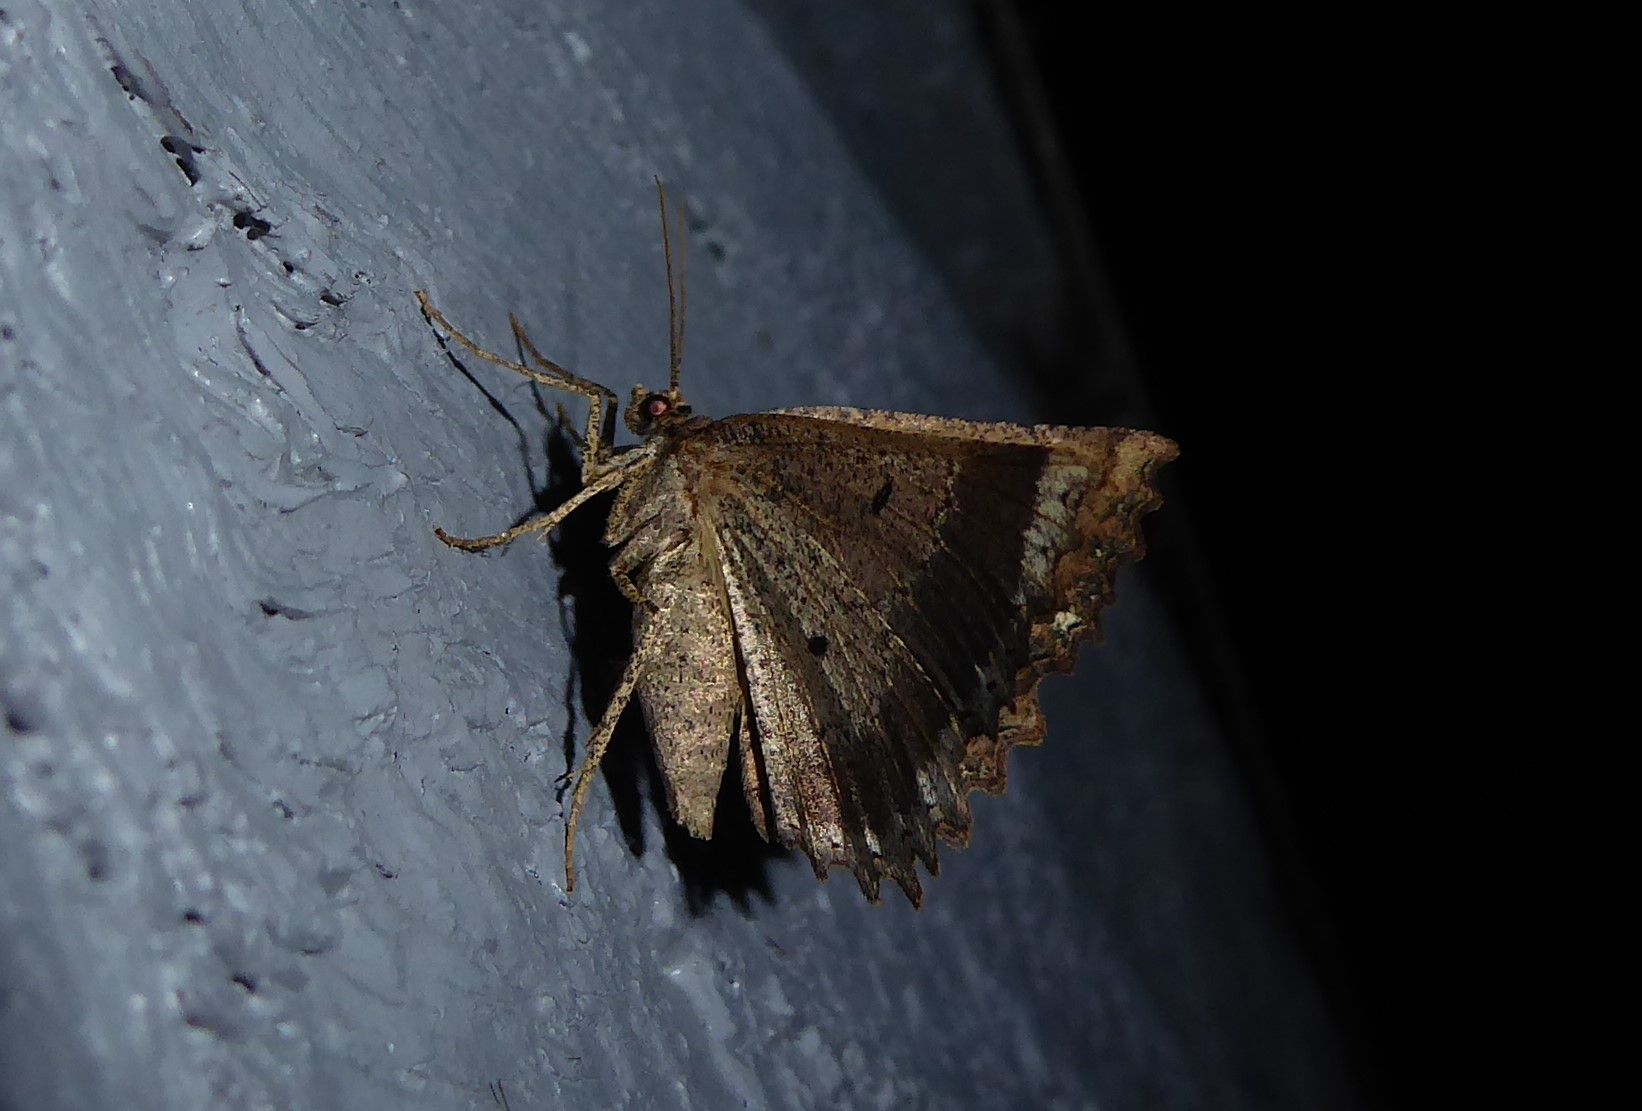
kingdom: Animalia
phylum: Arthropoda
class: Insecta
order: Lepidoptera
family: Geometridae
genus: Gellonia
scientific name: Gellonia pannularia
